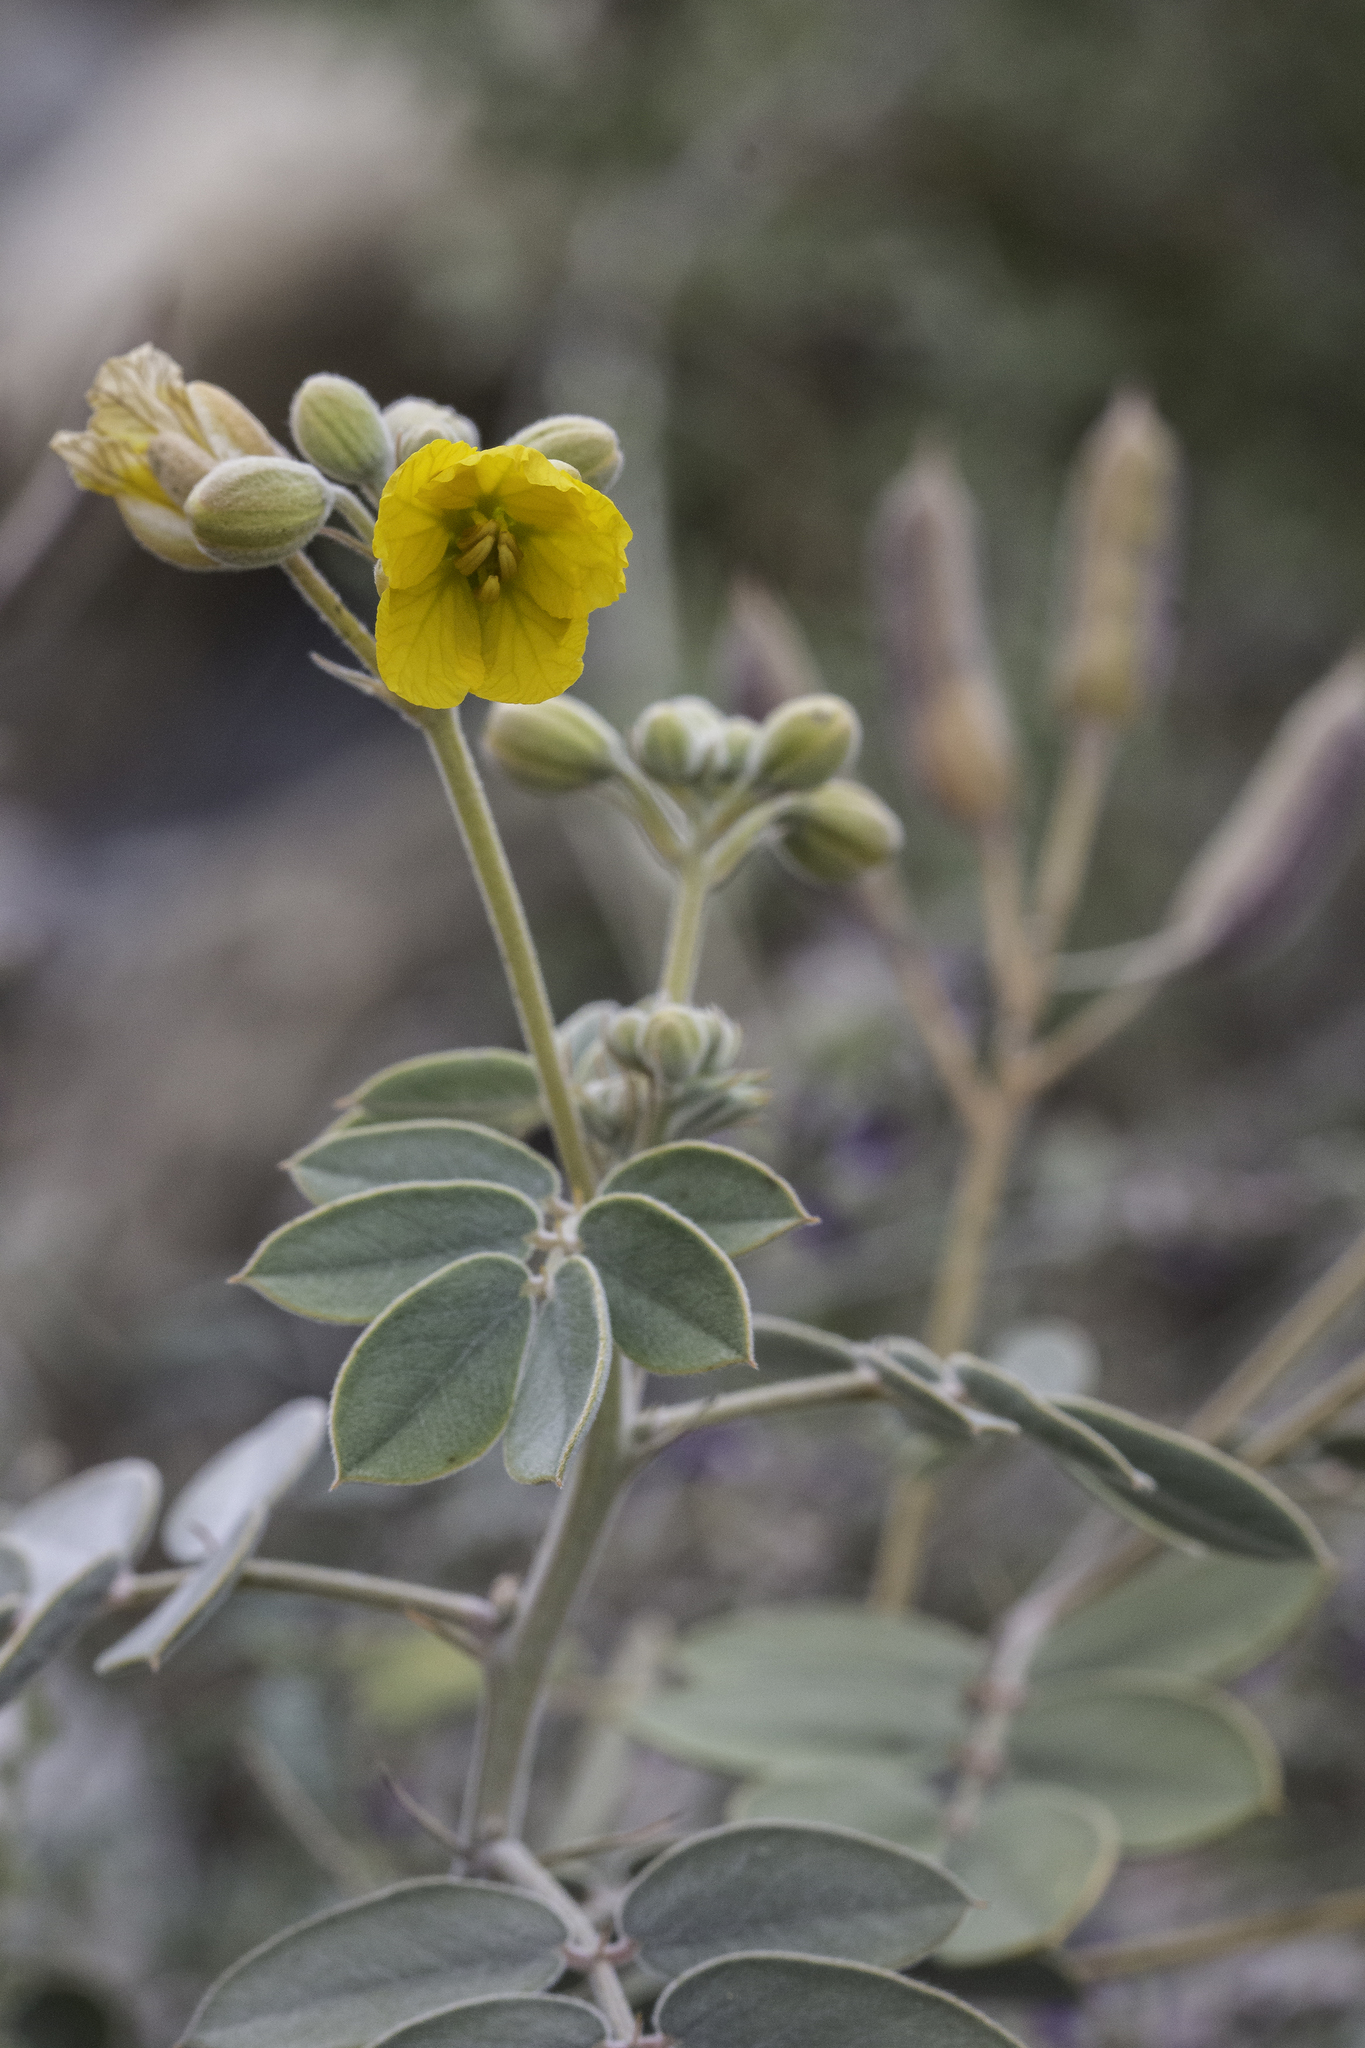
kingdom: Plantae
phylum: Tracheophyta
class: Magnoliopsida
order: Fabales
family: Fabaceae
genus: Senna
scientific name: Senna covesii
